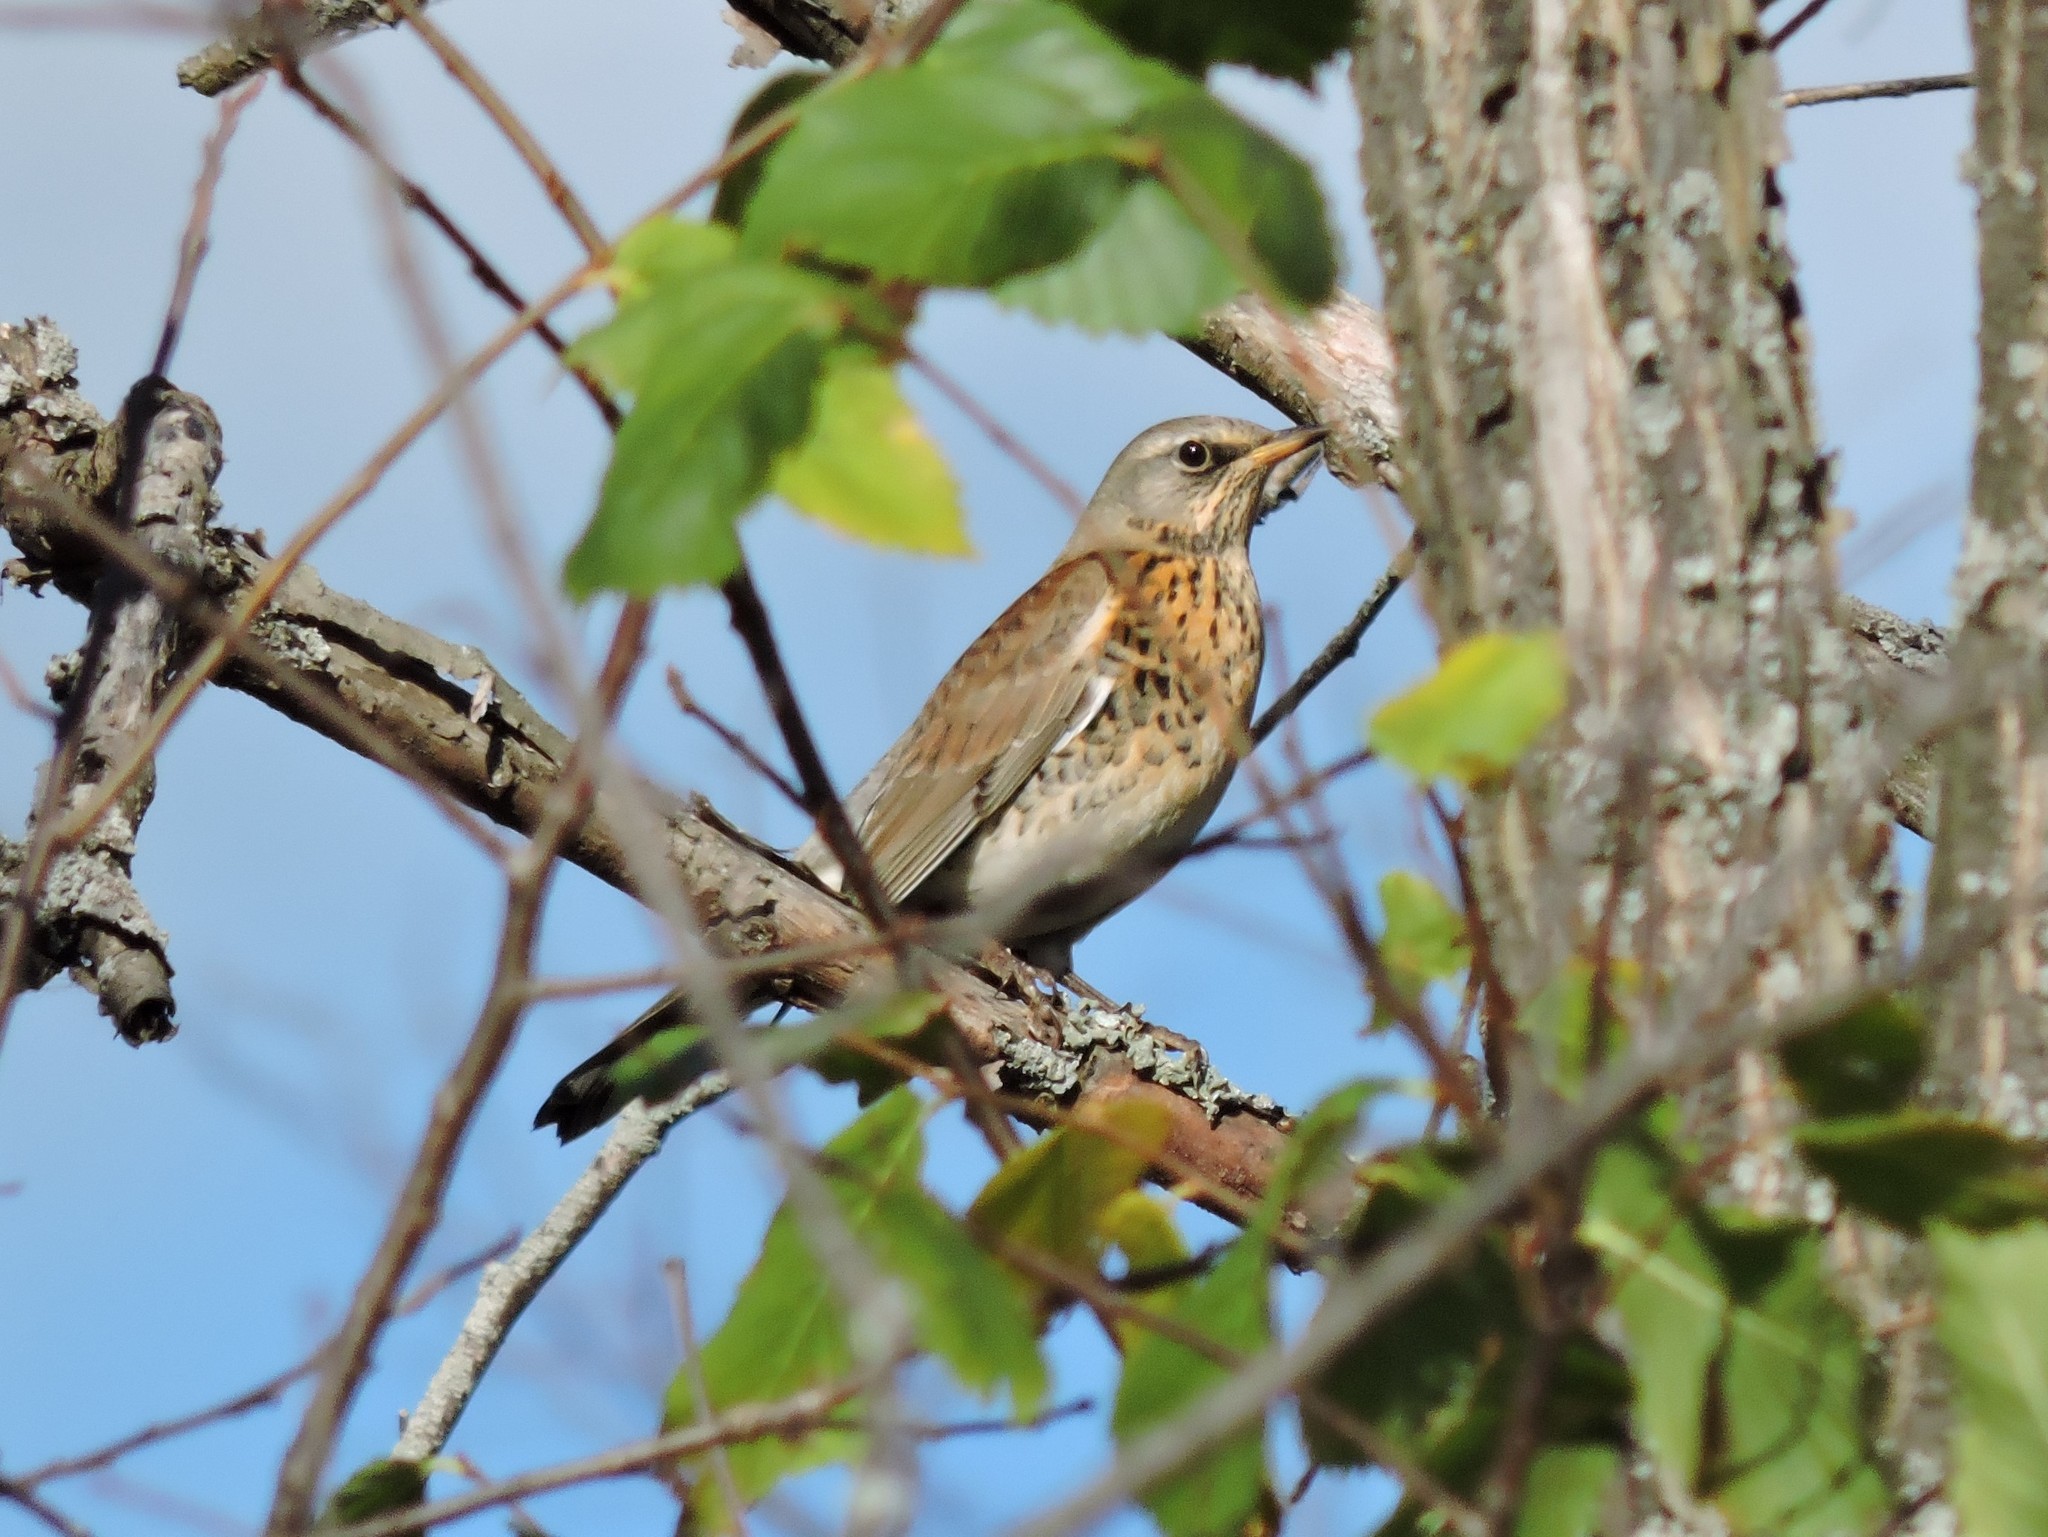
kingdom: Animalia
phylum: Chordata
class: Aves
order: Passeriformes
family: Turdidae
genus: Turdus
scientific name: Turdus pilaris
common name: Fieldfare
